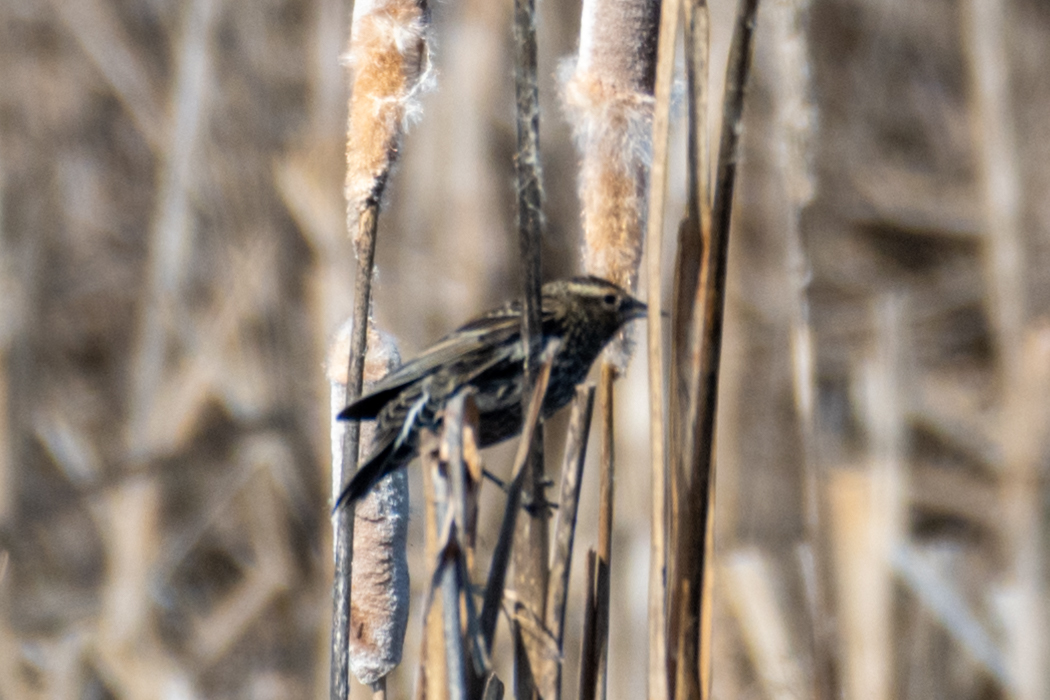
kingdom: Animalia
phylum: Chordata
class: Aves
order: Passeriformes
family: Icteridae
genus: Agelaius
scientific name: Agelaius phoeniceus
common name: Red-winged blackbird
